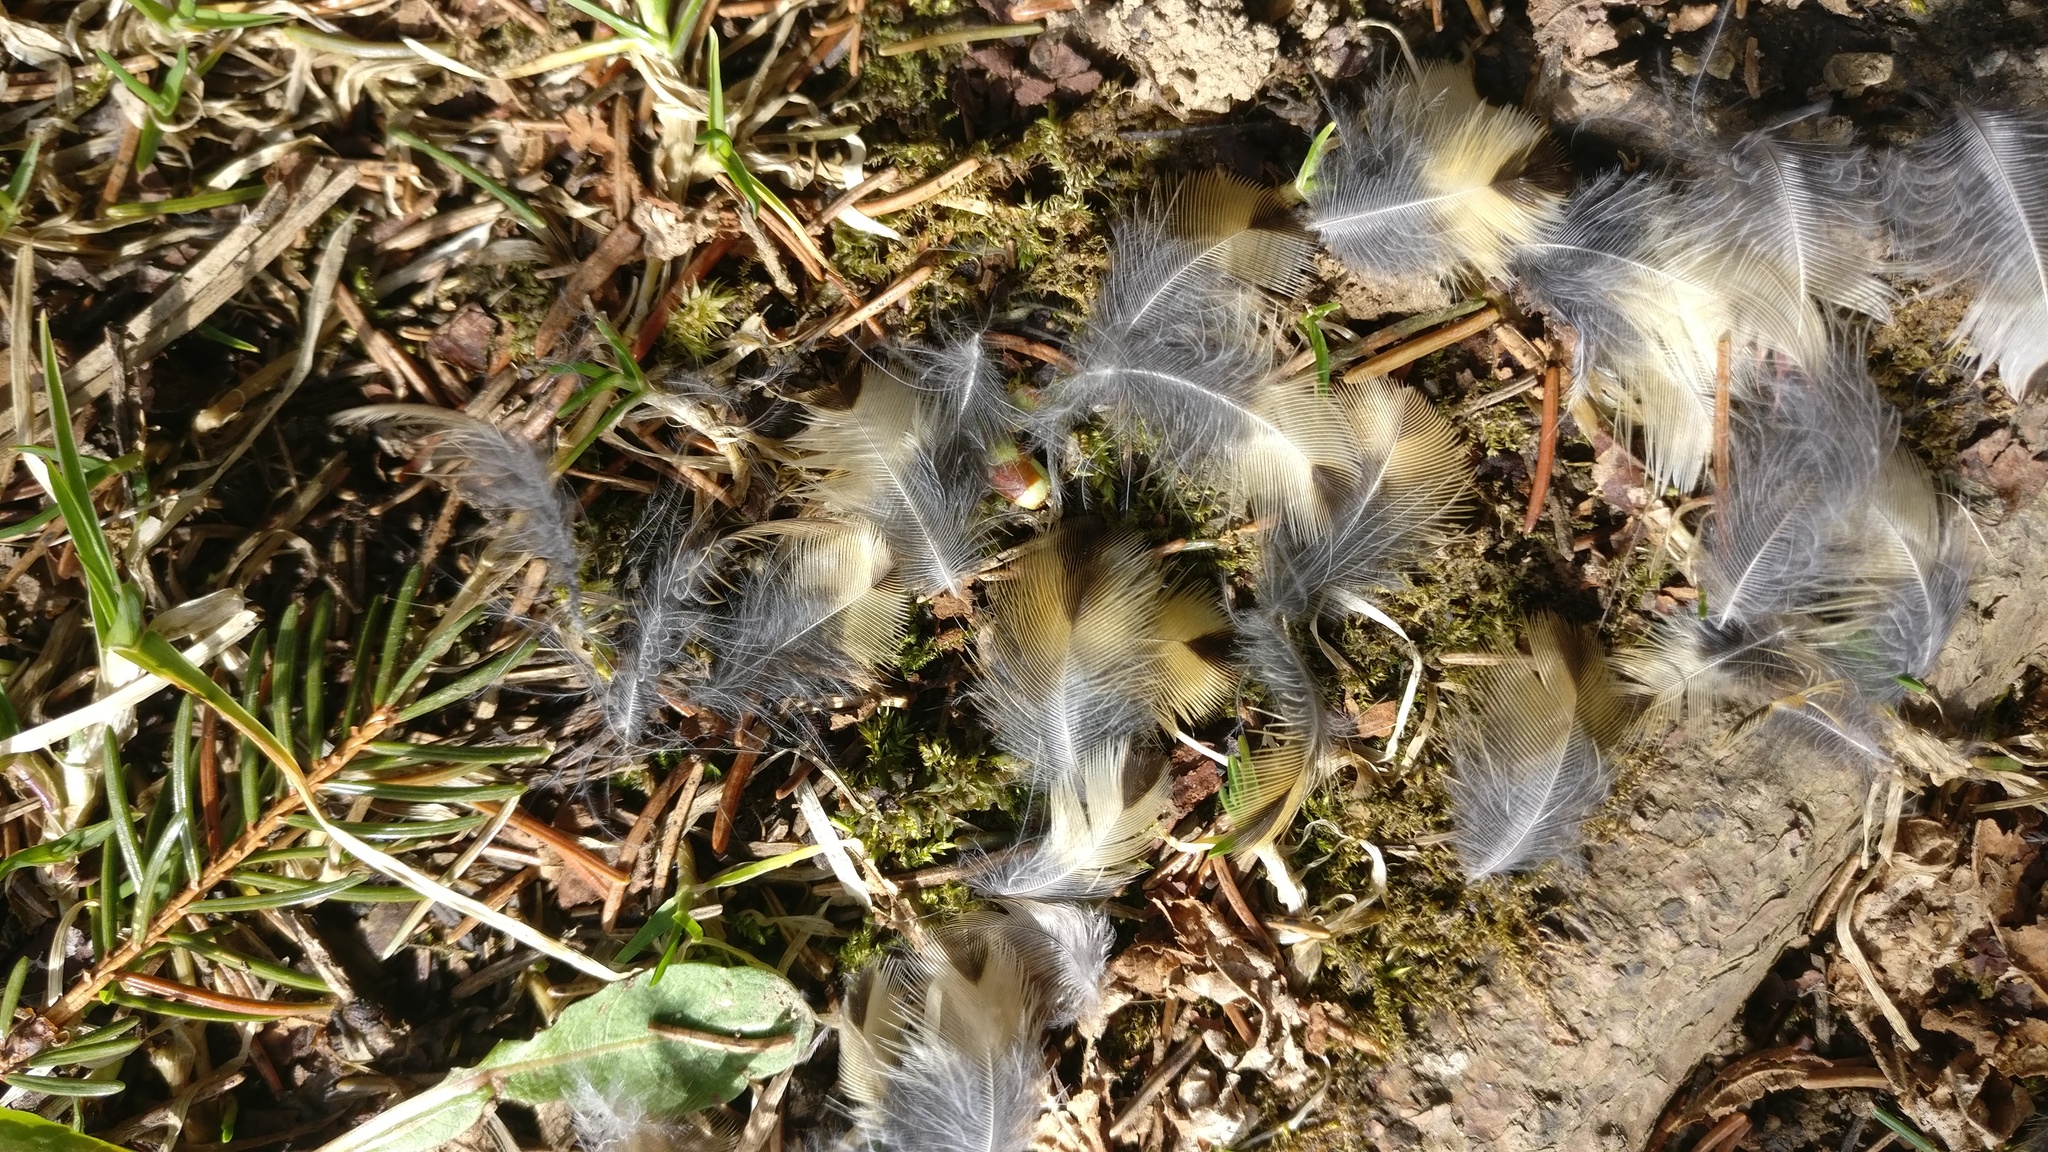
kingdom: Animalia
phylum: Chordata
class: Aves
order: Passeriformes
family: Turdidae
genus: Turdus
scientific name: Turdus philomelos
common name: Song thrush
